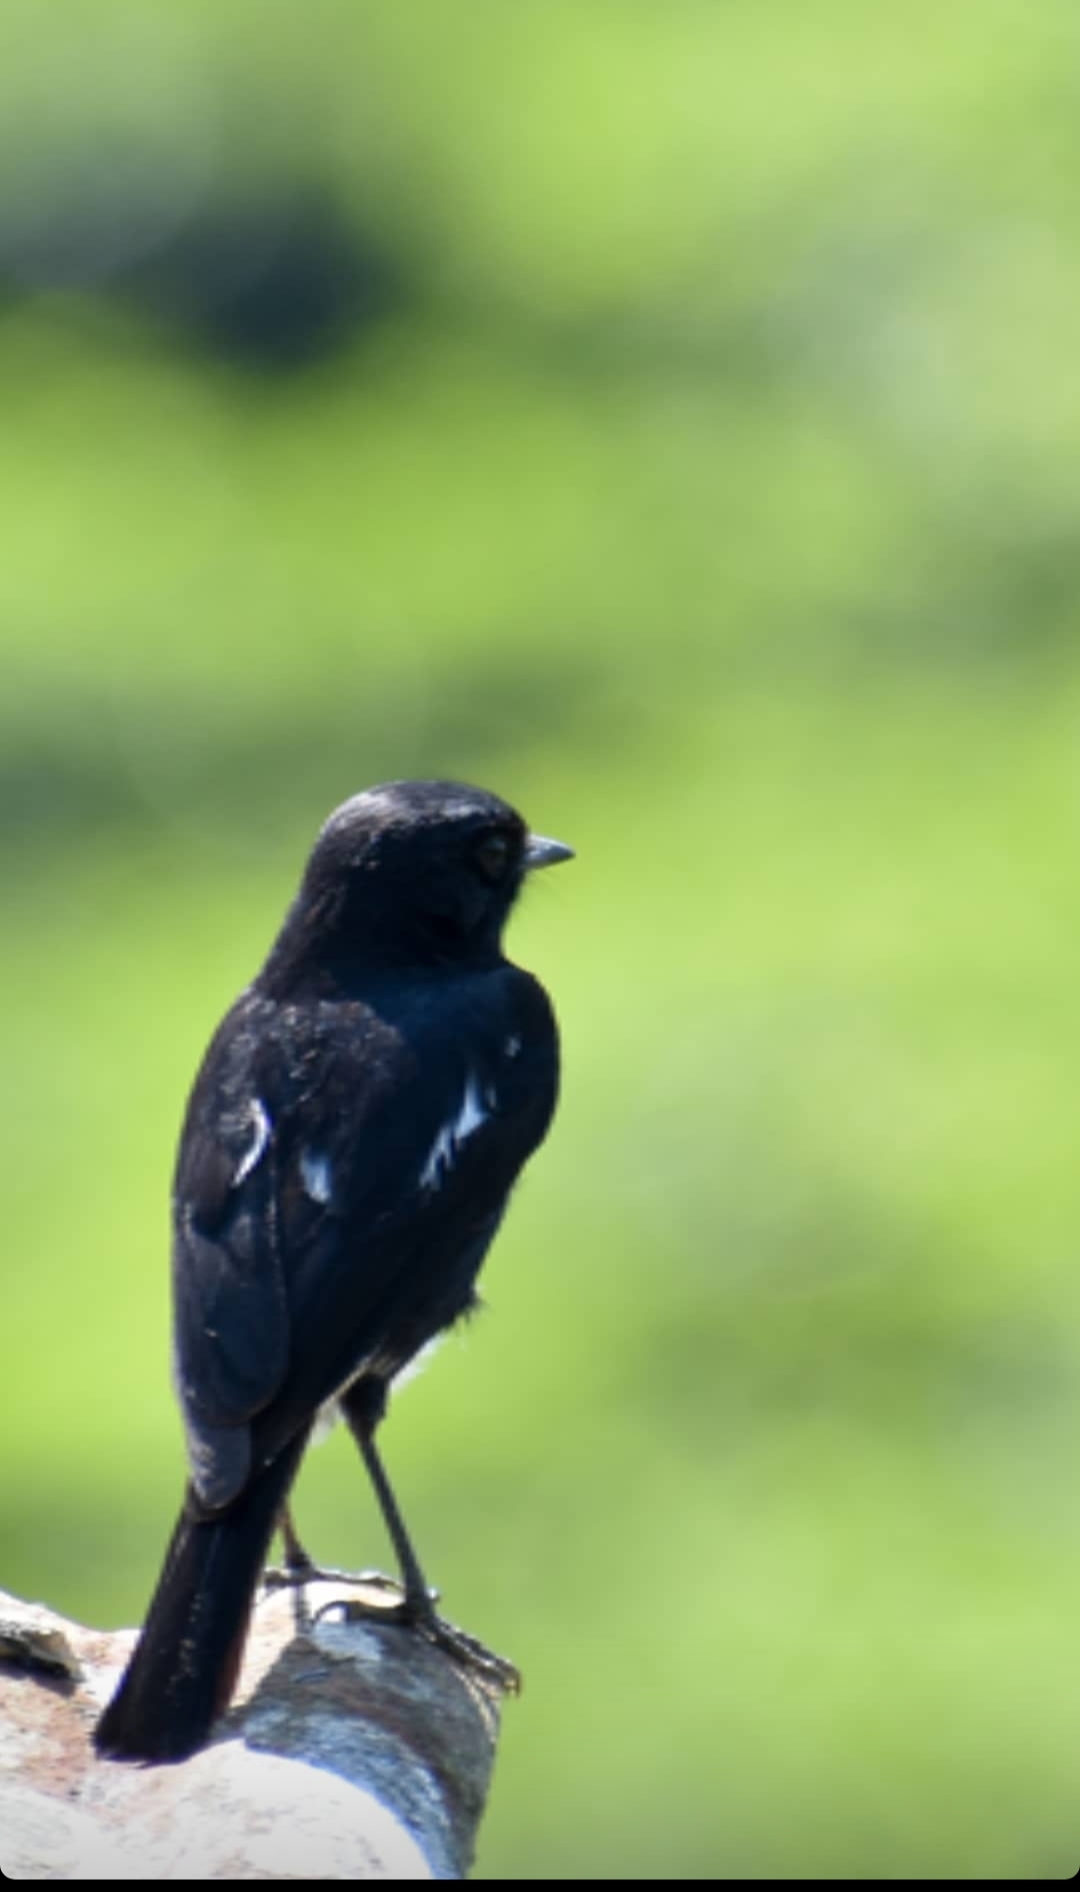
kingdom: Animalia
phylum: Chordata
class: Aves
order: Passeriformes
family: Muscicapidae
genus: Saxicola
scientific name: Saxicola caprata
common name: Pied bush chat
